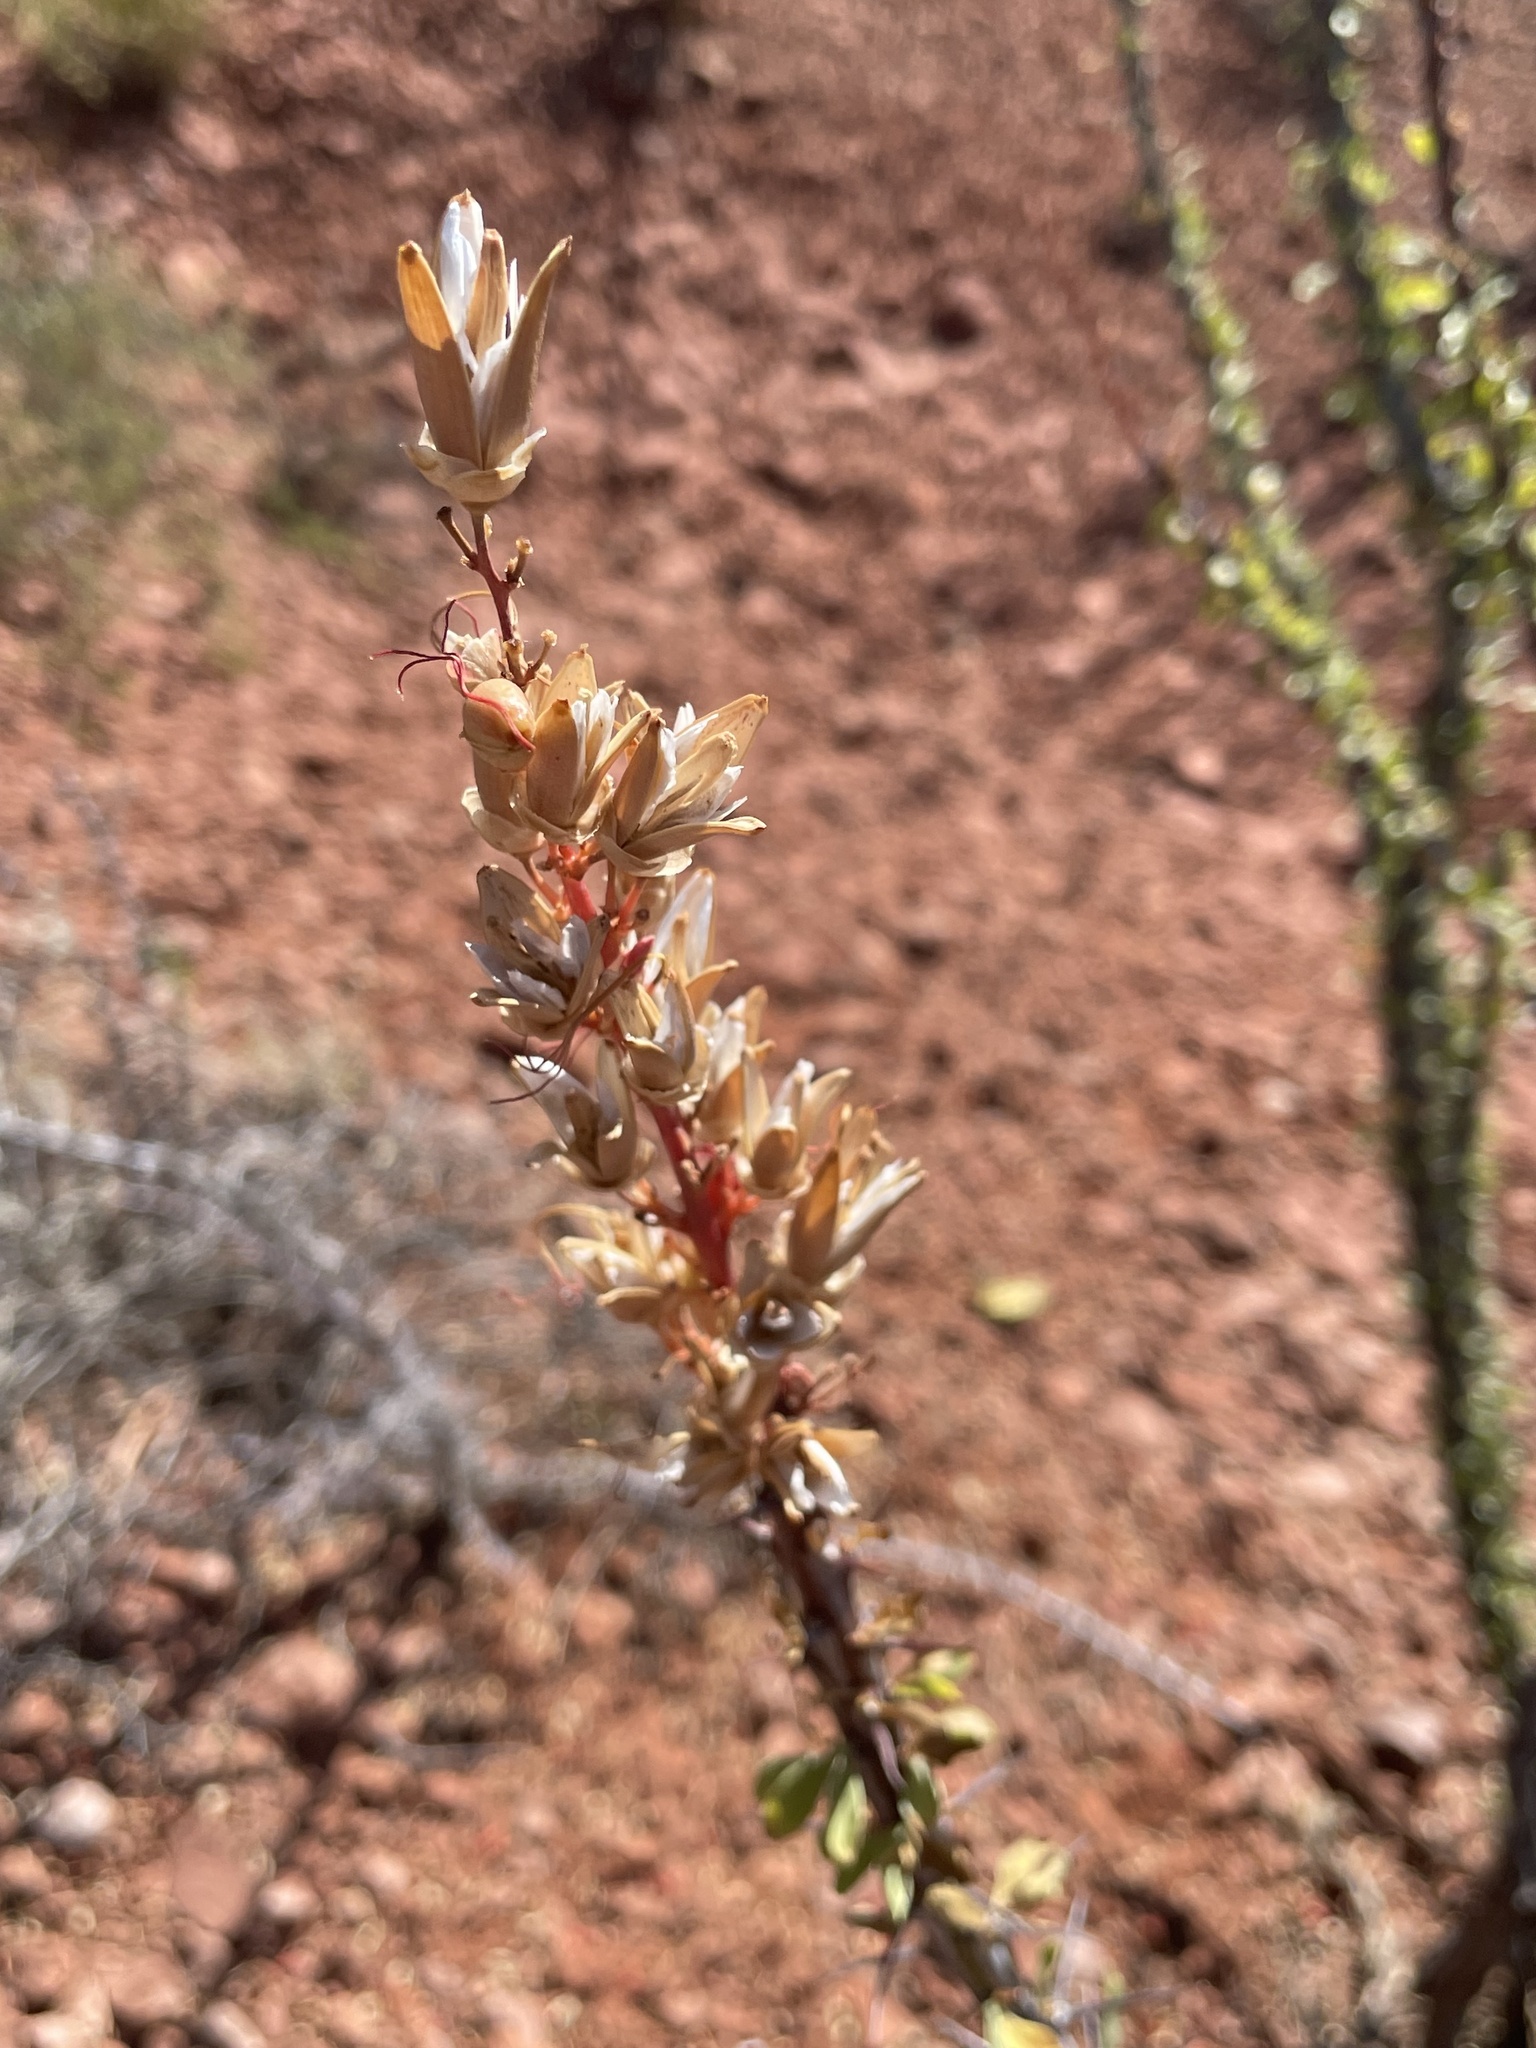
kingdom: Plantae
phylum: Tracheophyta
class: Magnoliopsida
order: Ericales
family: Fouquieriaceae
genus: Fouquieria
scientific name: Fouquieria splendens
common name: Vine-cactus
